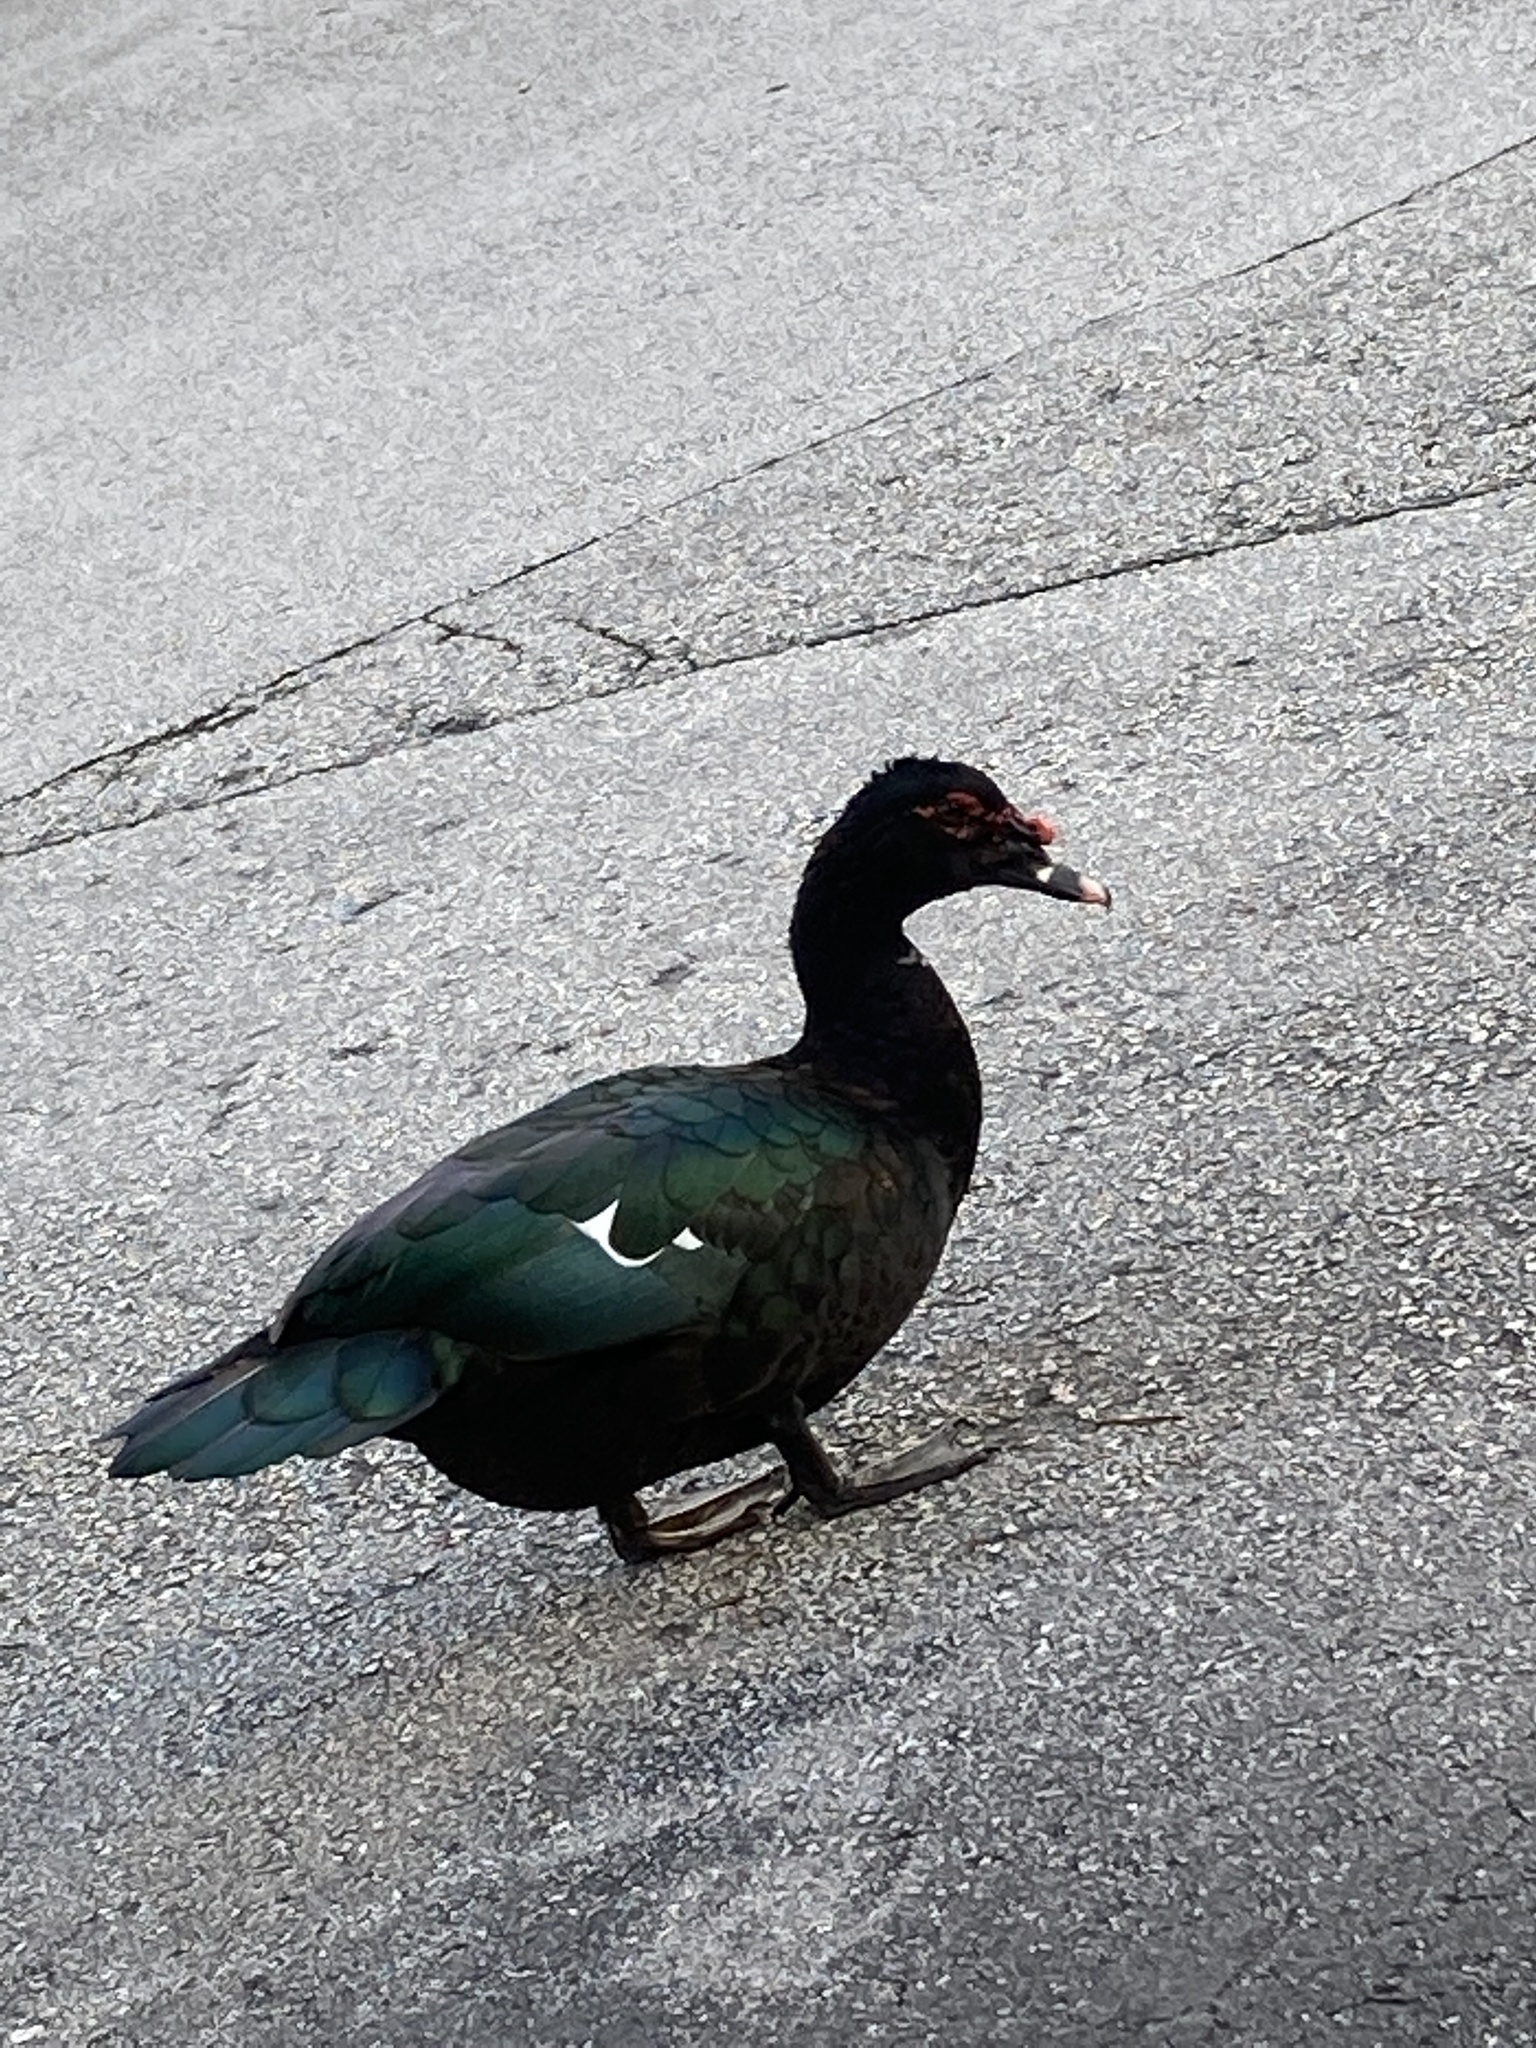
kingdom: Animalia
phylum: Chordata
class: Aves
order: Anseriformes
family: Anatidae
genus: Cairina
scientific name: Cairina moschata
